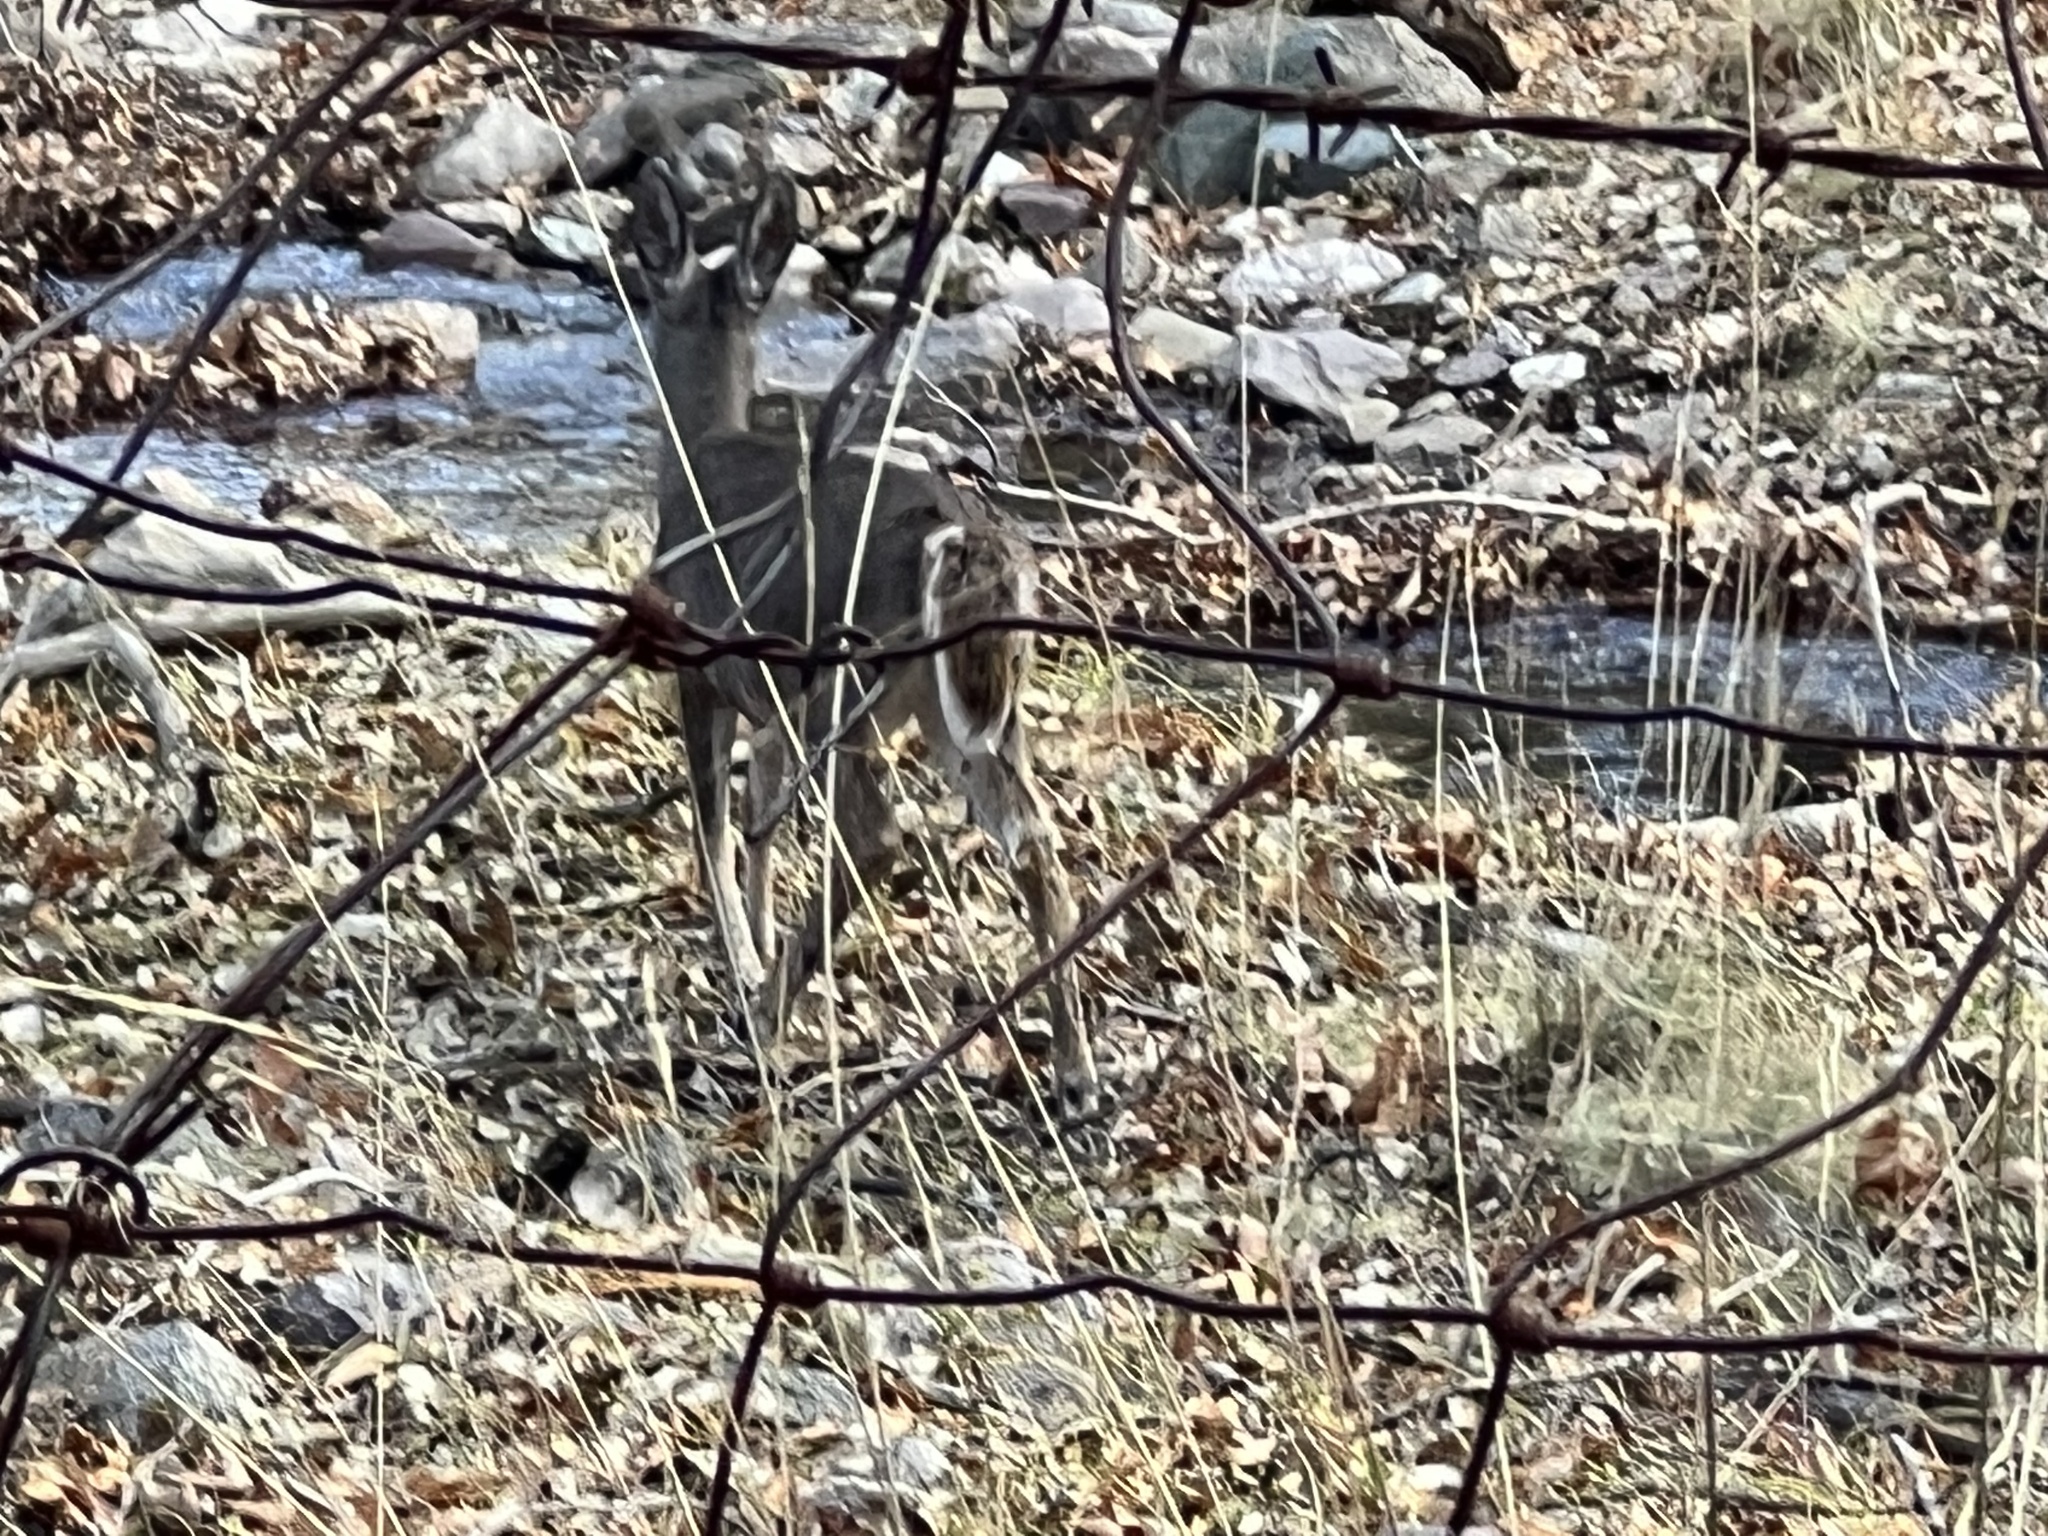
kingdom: Animalia
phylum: Chordata
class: Mammalia
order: Artiodactyla
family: Cervidae
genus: Odocoileus
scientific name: Odocoileus virginianus
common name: White-tailed deer
